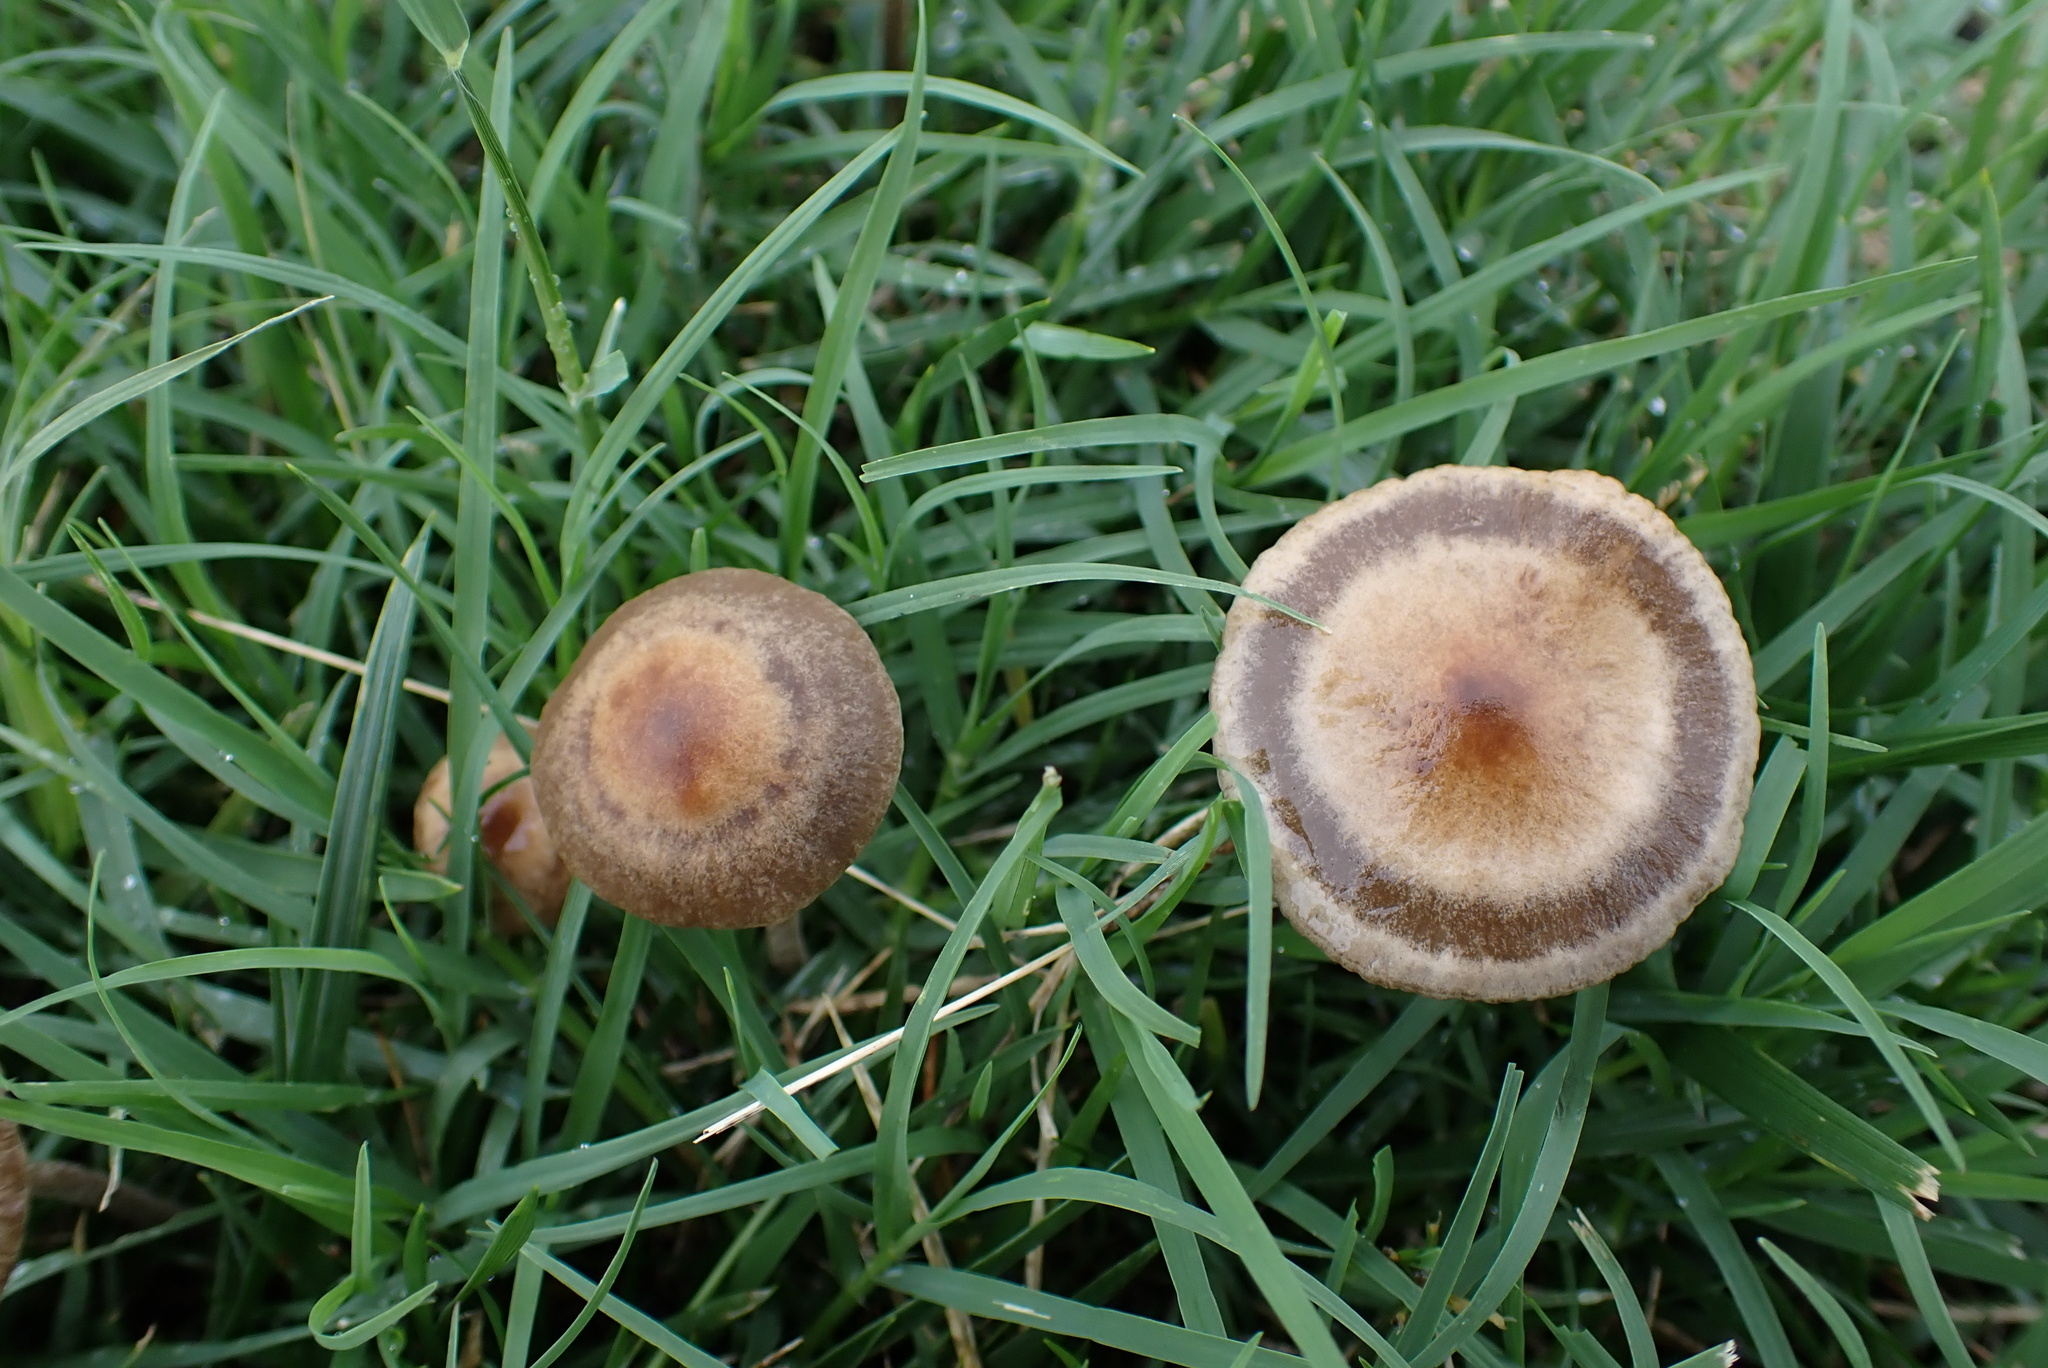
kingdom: Fungi
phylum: Basidiomycota
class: Agaricomycetes
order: Agaricales
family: Bolbitiaceae
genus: Panaeolus
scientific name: Panaeolus cinctulus
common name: Banded mottlegill
